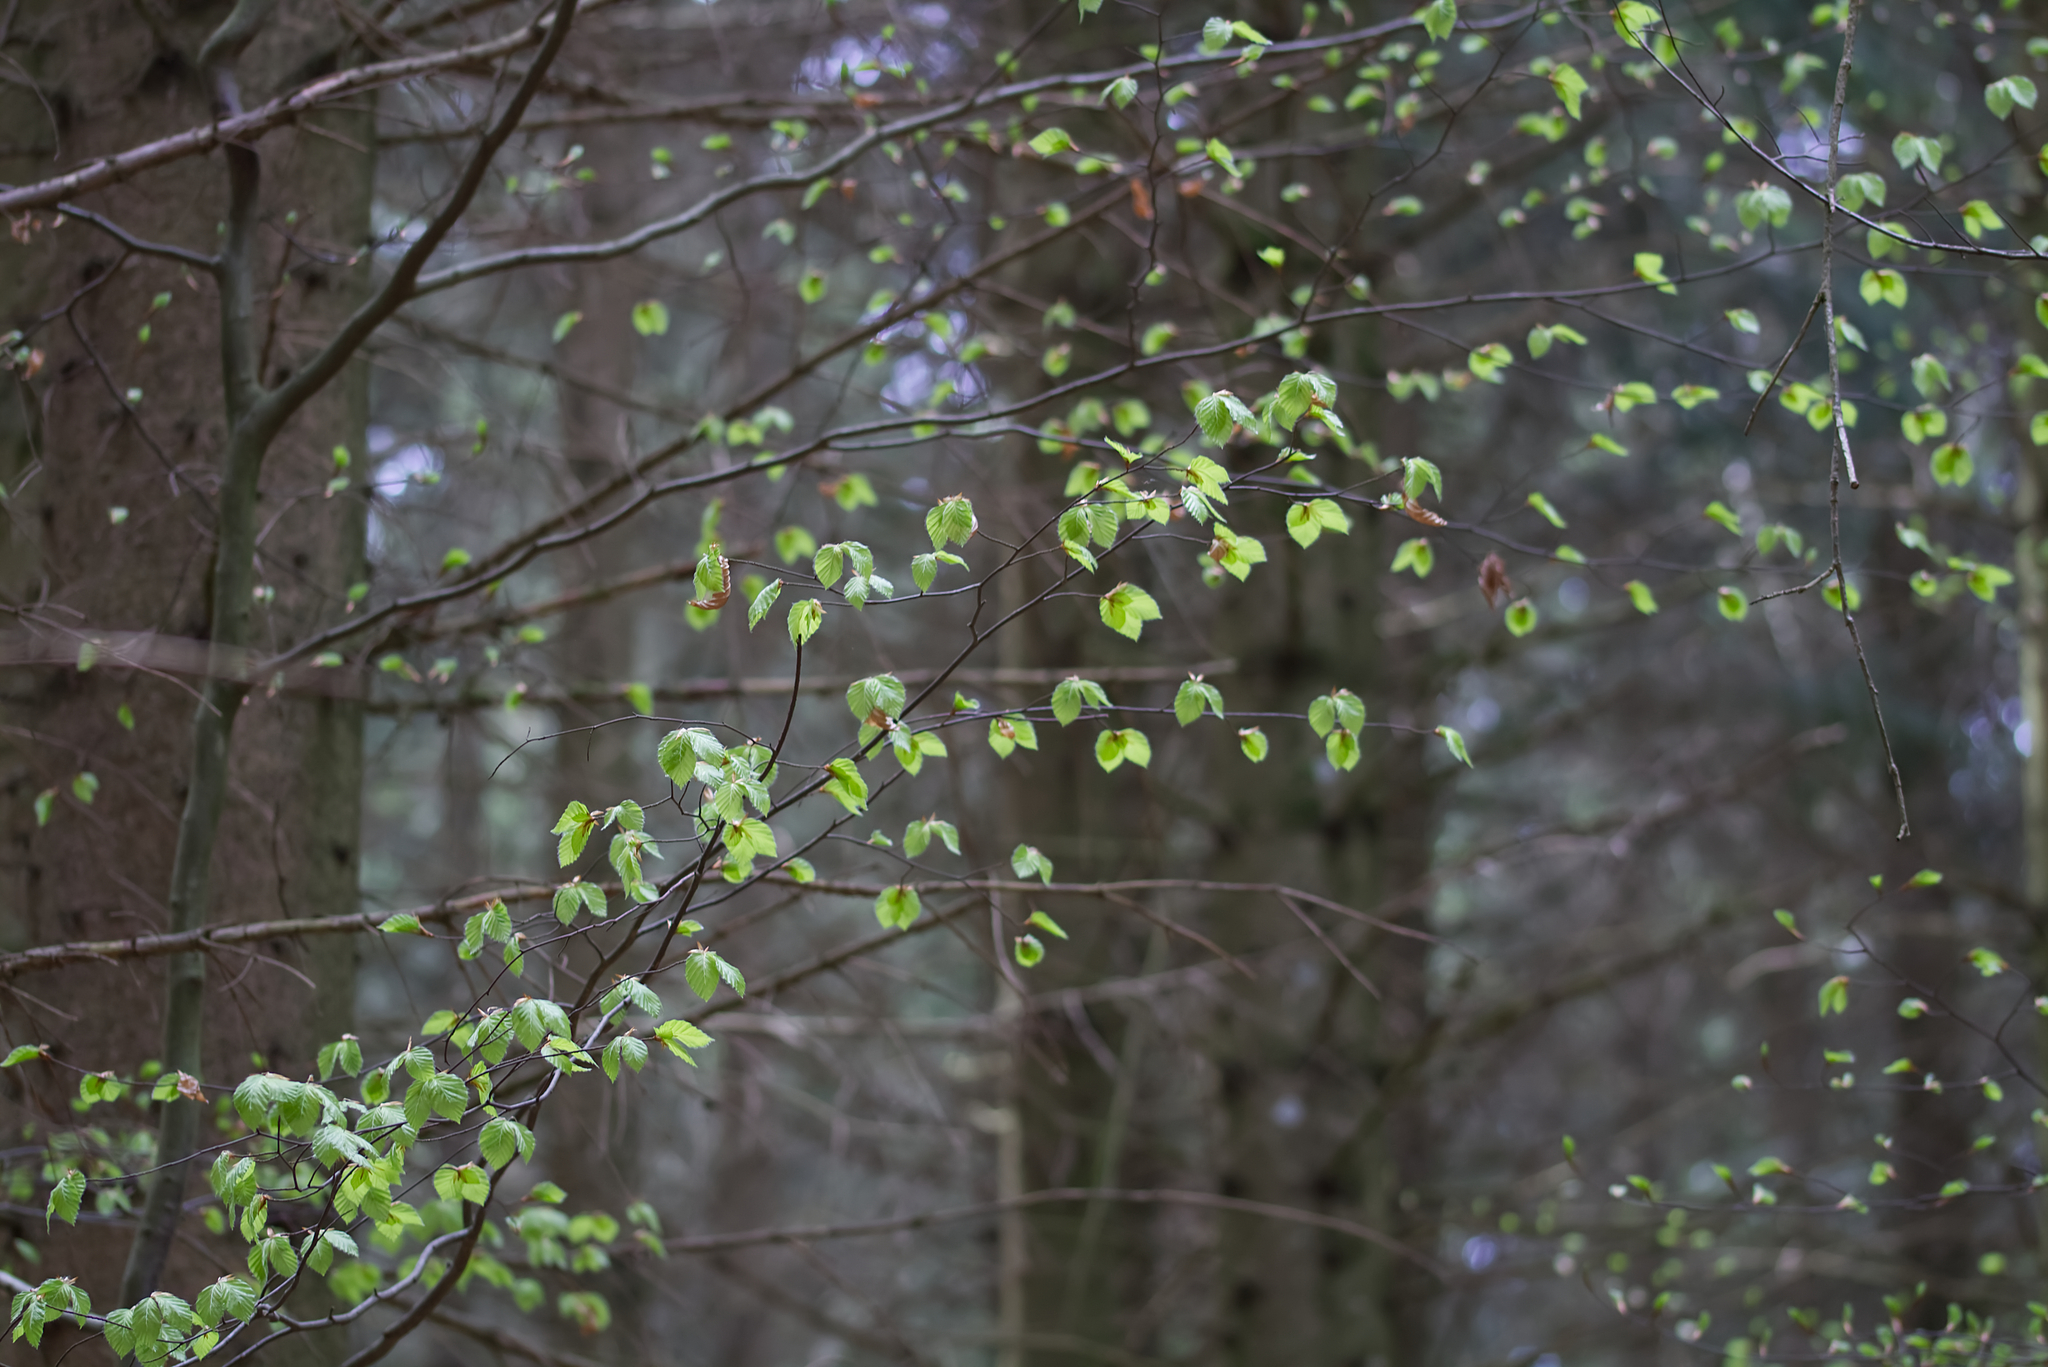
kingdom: Plantae
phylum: Tracheophyta
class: Magnoliopsida
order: Fagales
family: Fagaceae
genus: Fagus
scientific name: Fagus sylvatica
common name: Beech
